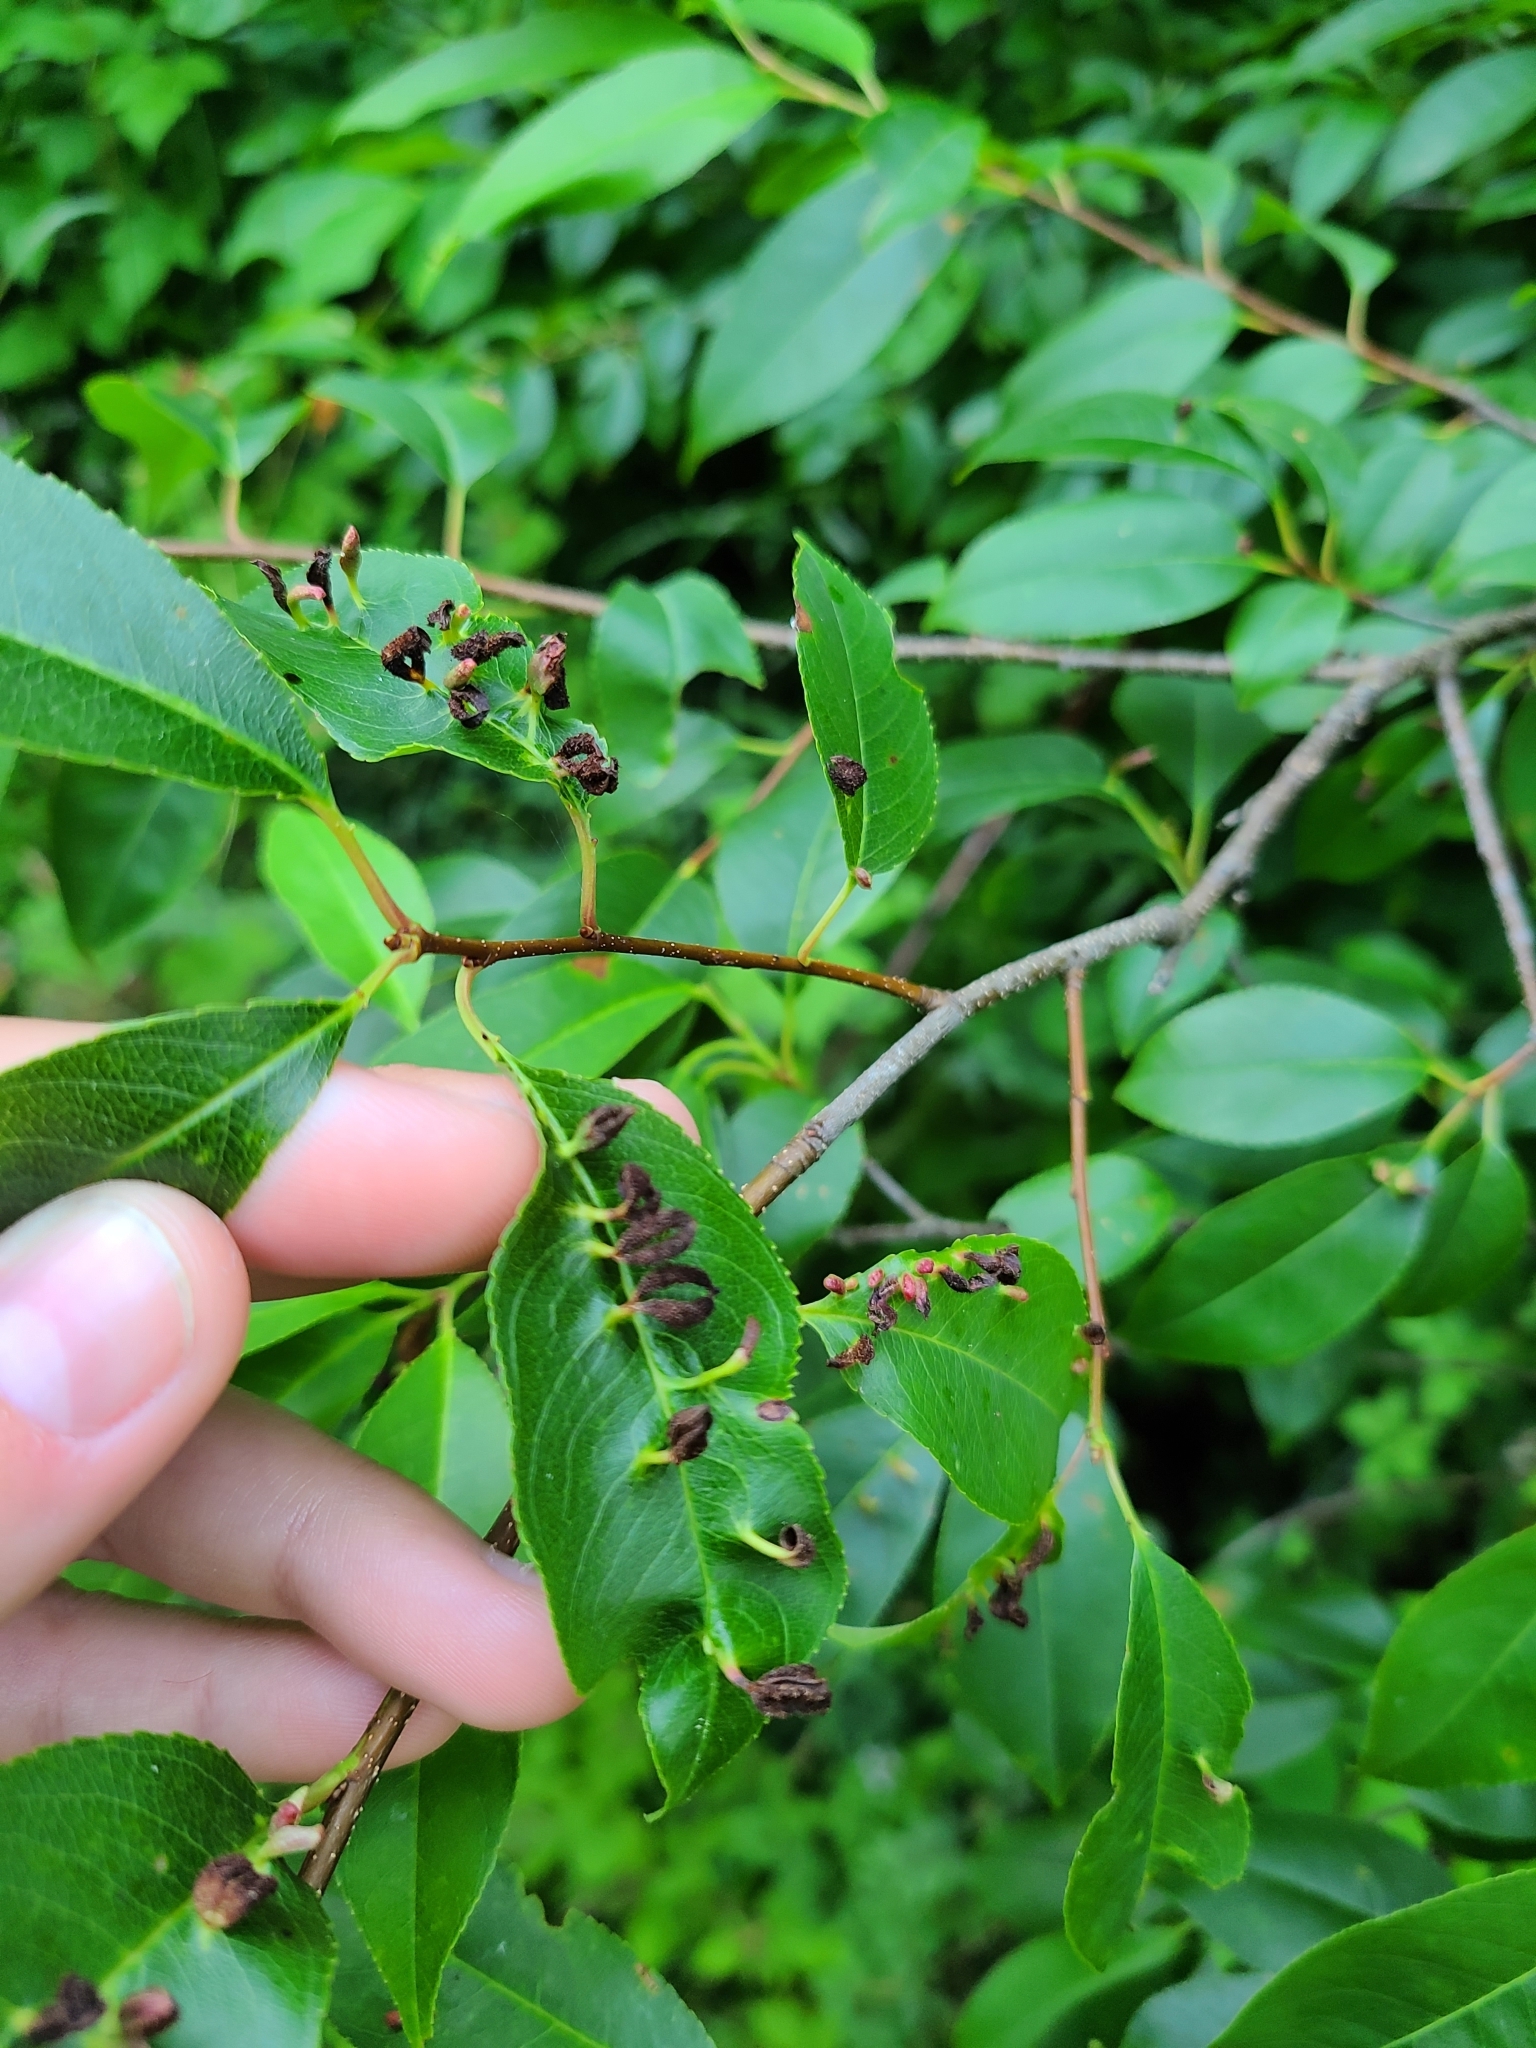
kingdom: Animalia
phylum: Arthropoda
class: Arachnida
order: Trombidiformes
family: Eriophyidae
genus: Eriophyes
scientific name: Eriophyes
